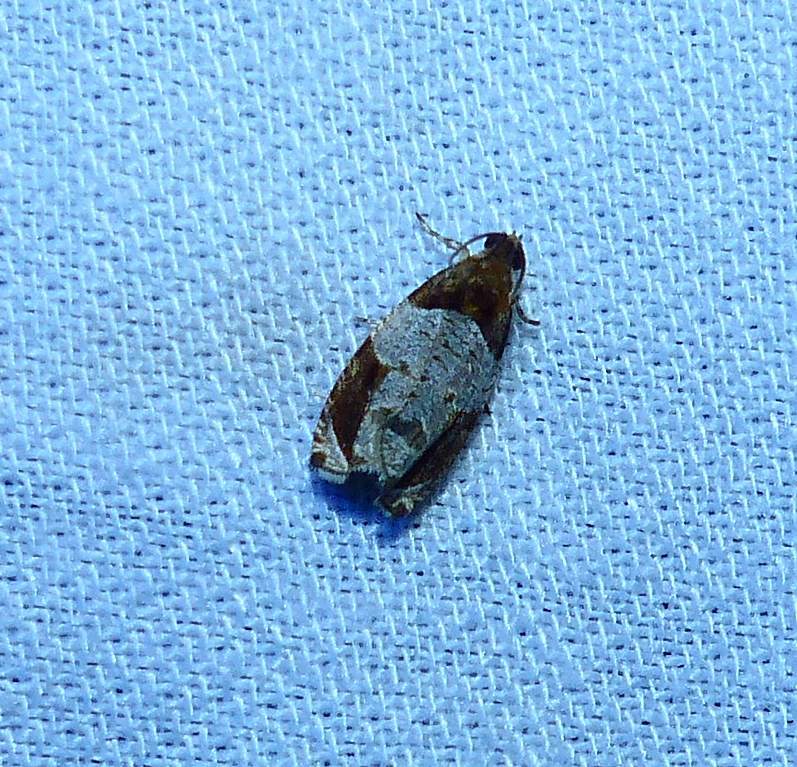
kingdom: Animalia
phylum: Arthropoda
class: Insecta
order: Lepidoptera
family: Tortricidae
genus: Olethreutes
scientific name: Olethreutes ferriferana
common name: Hydrangea leaftier moth
